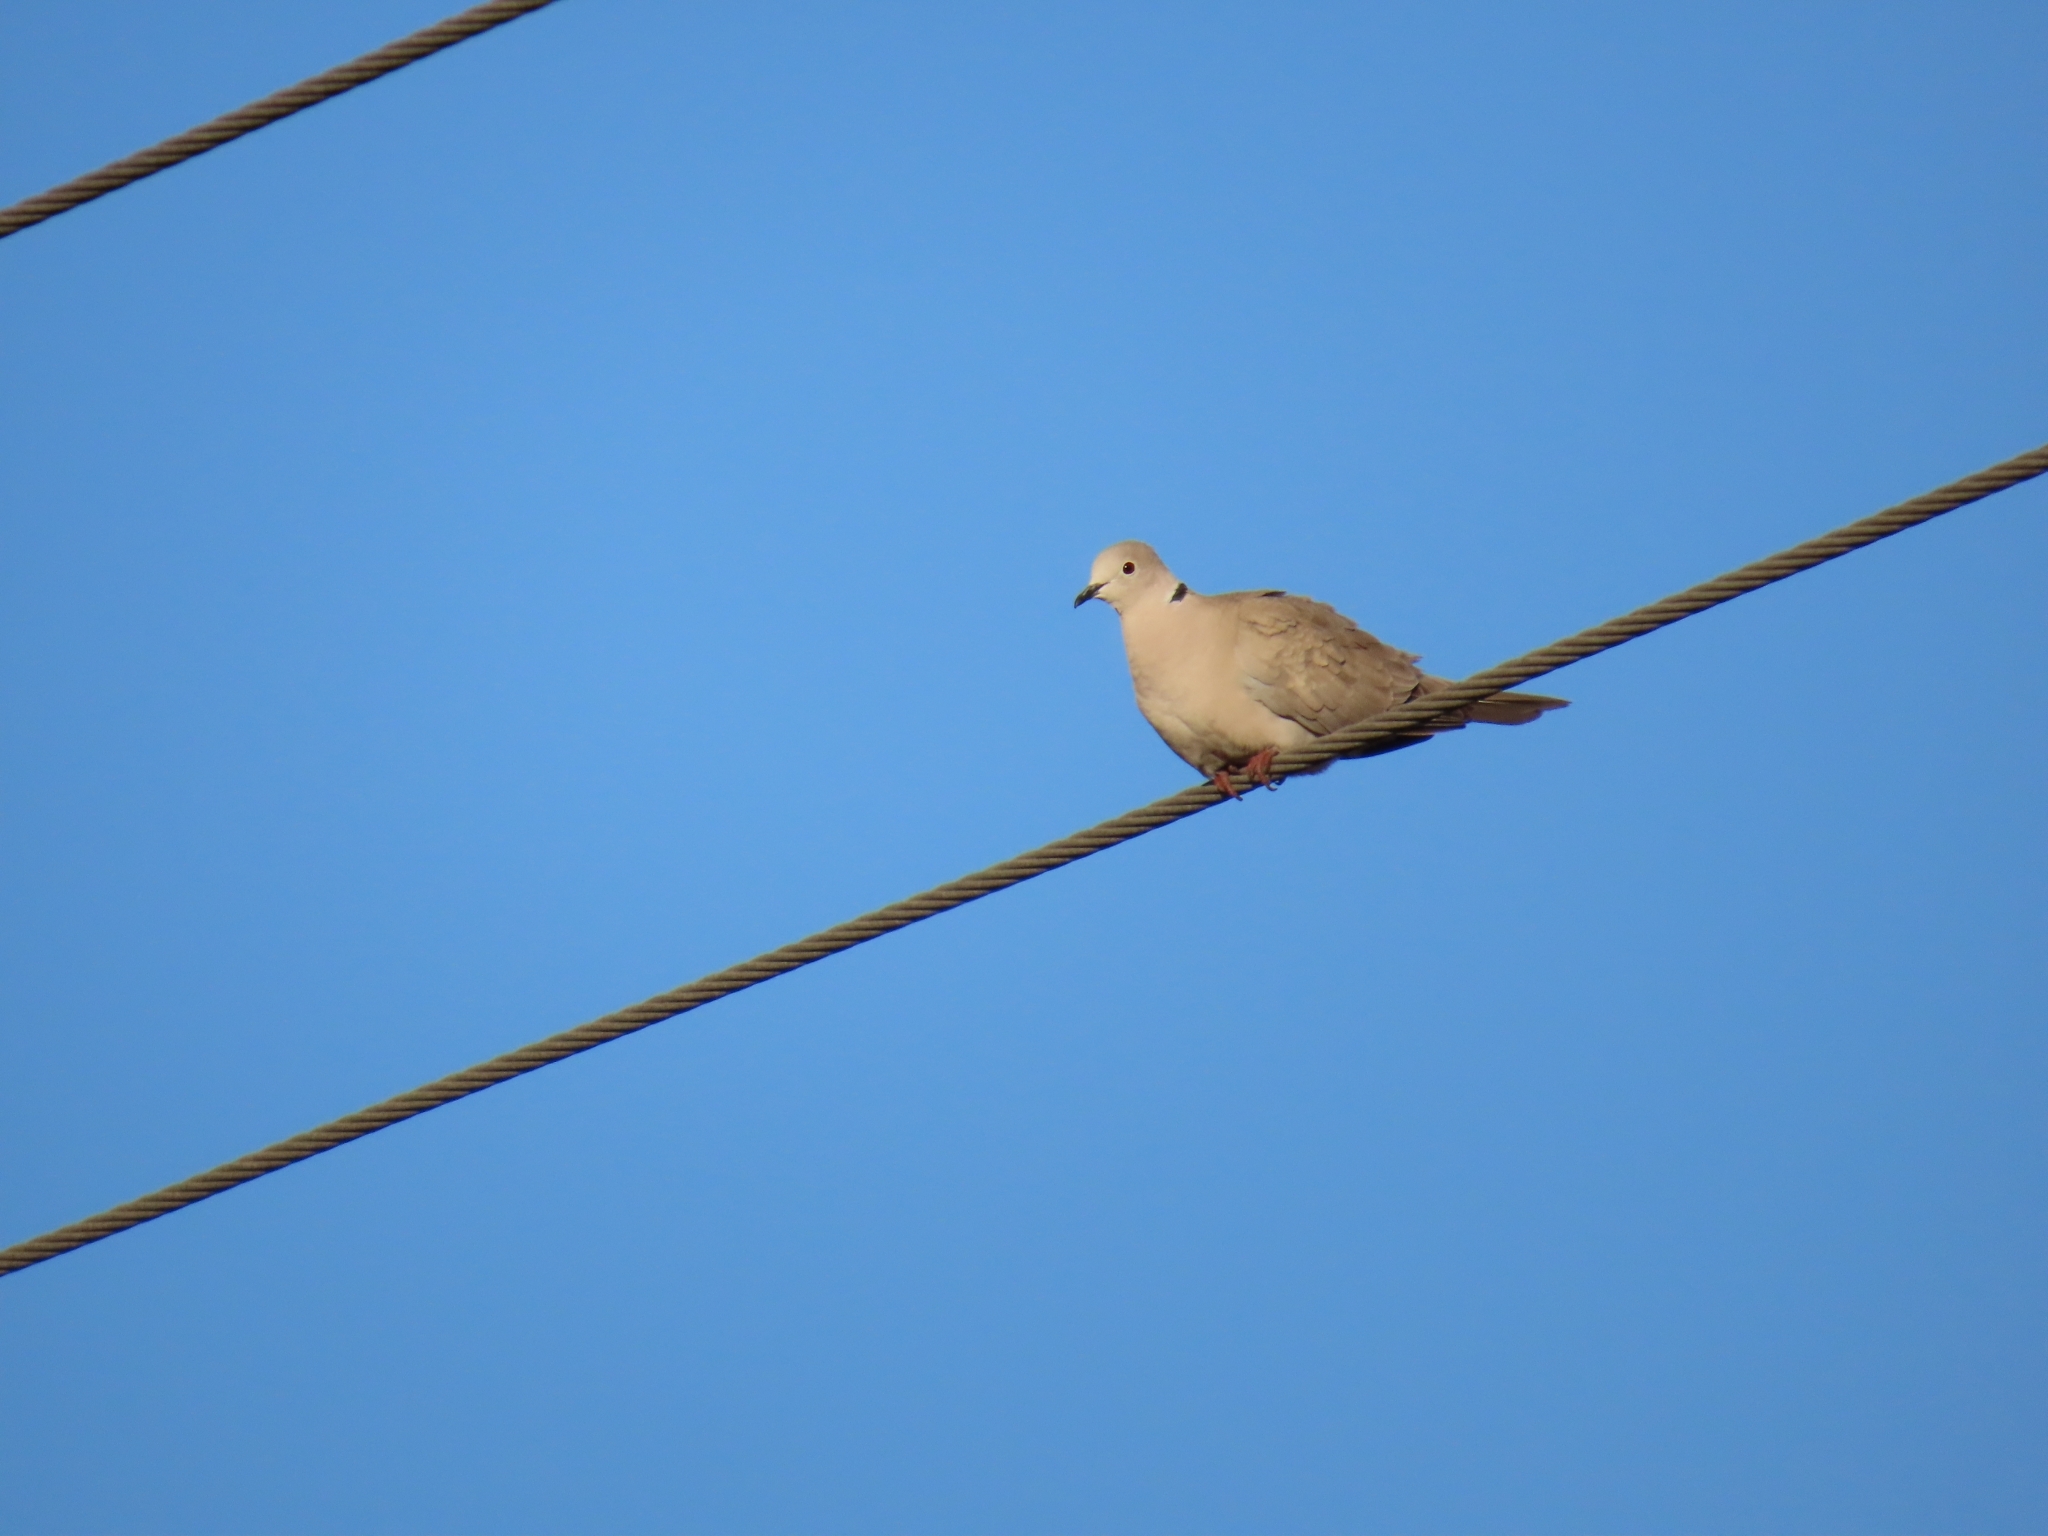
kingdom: Animalia
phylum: Chordata
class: Aves
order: Columbiformes
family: Columbidae
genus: Streptopelia
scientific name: Streptopelia decaocto
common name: Eurasian collared dove
